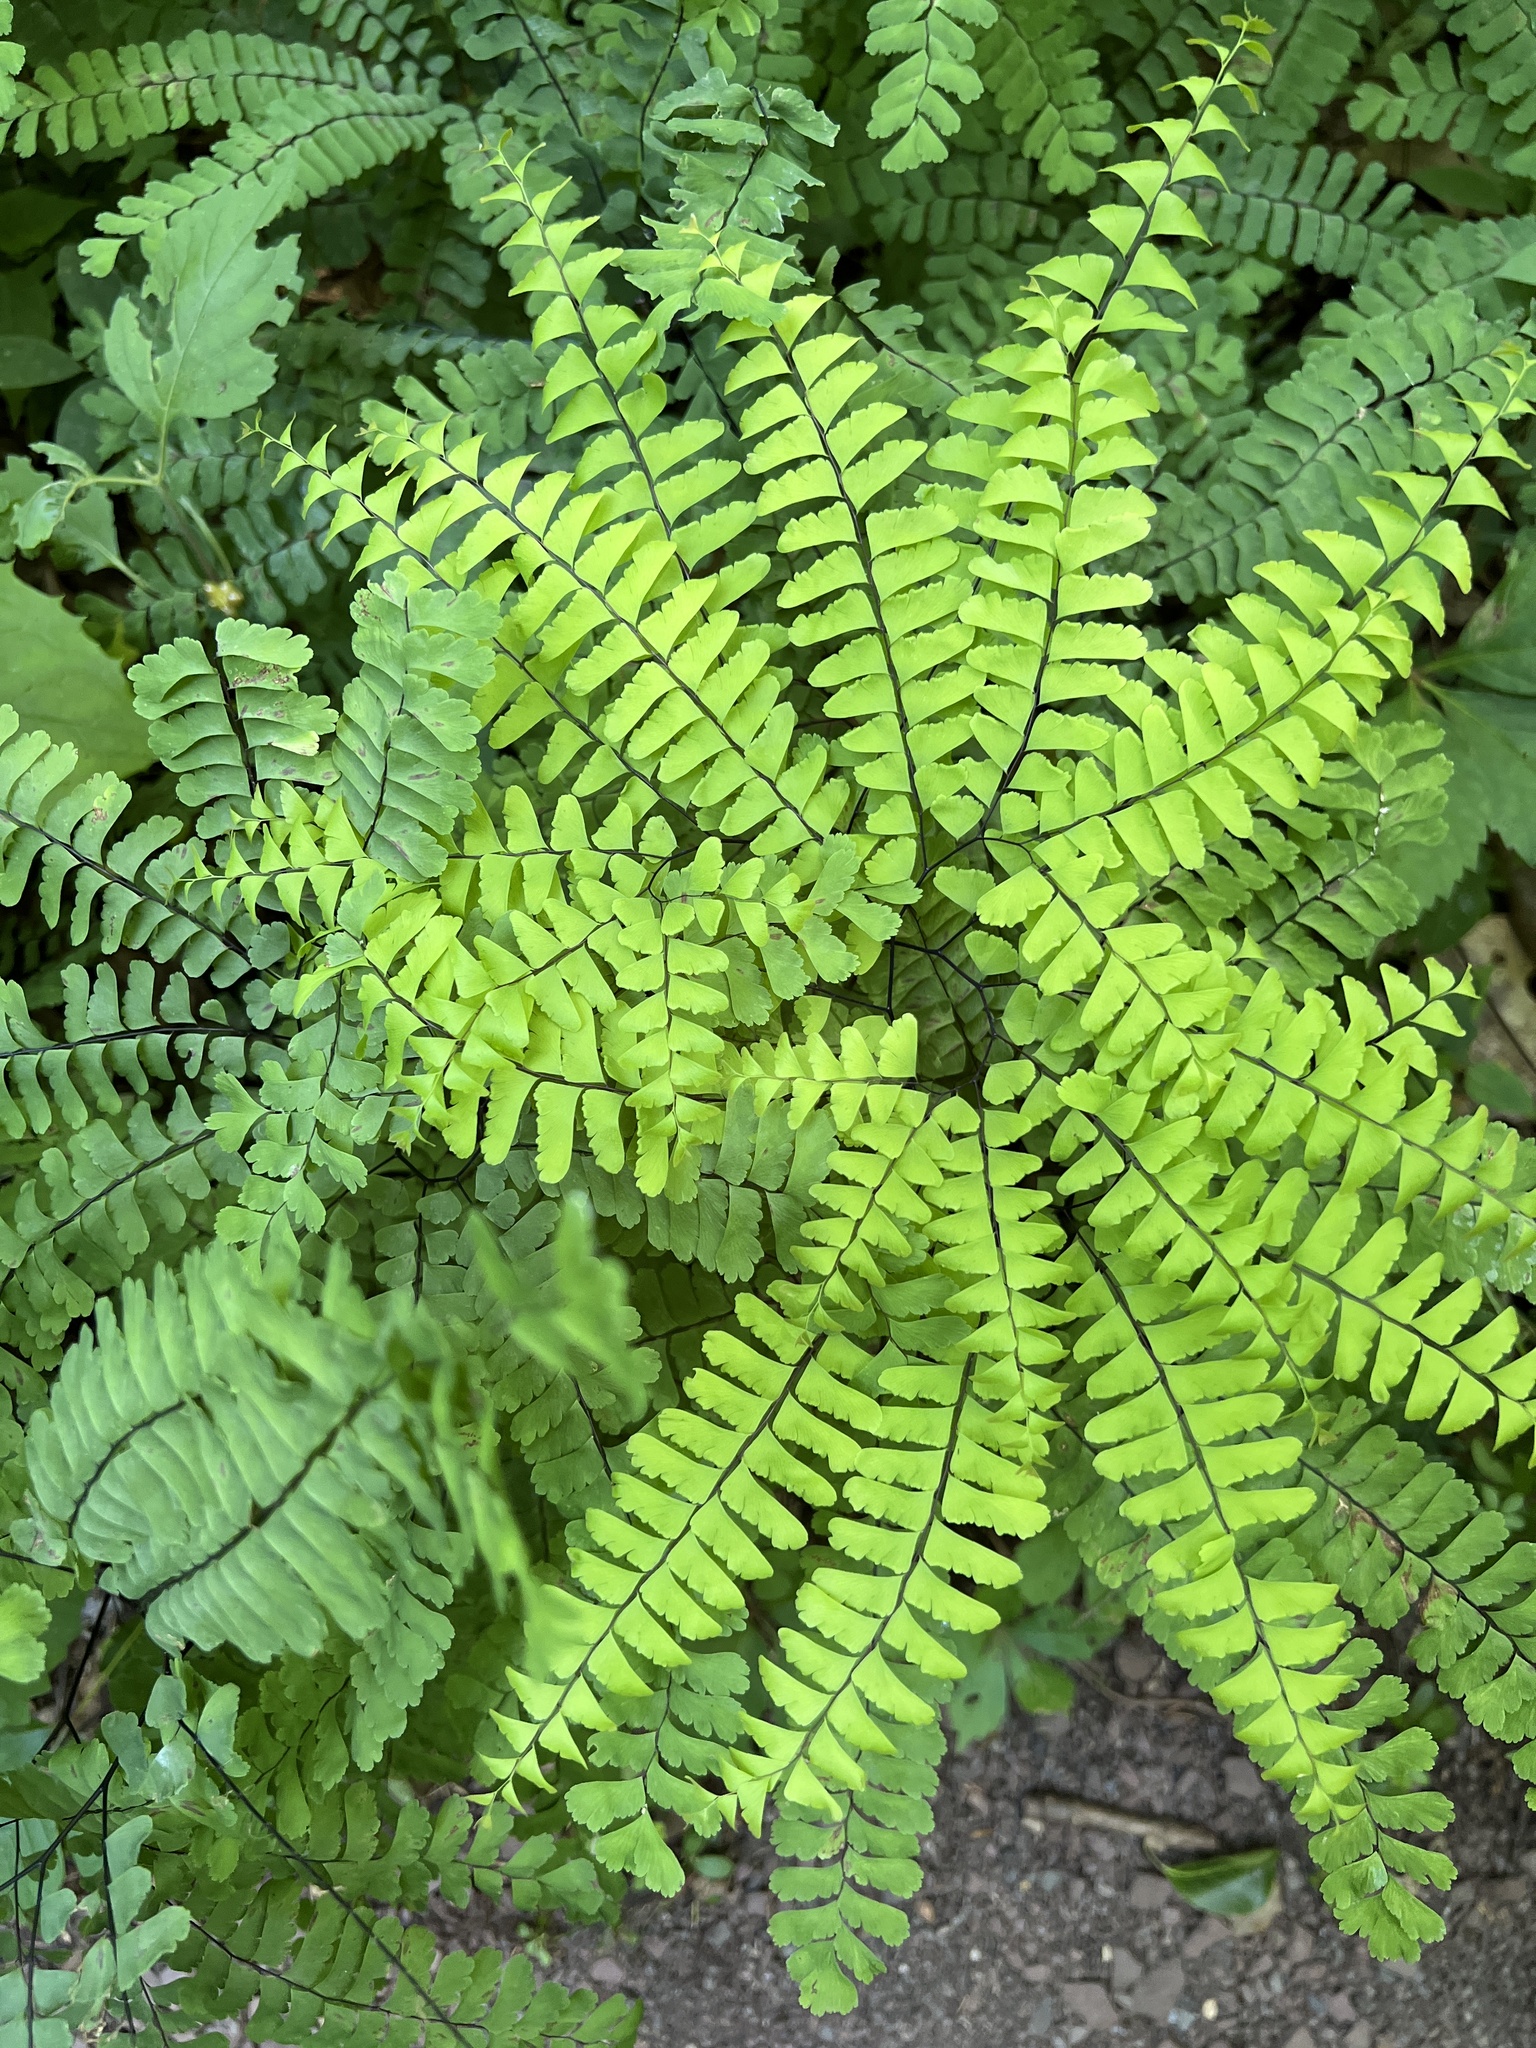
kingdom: Plantae
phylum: Tracheophyta
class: Polypodiopsida
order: Polypodiales
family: Pteridaceae
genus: Adiantum
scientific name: Adiantum pedatum
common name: Five-finger fern
